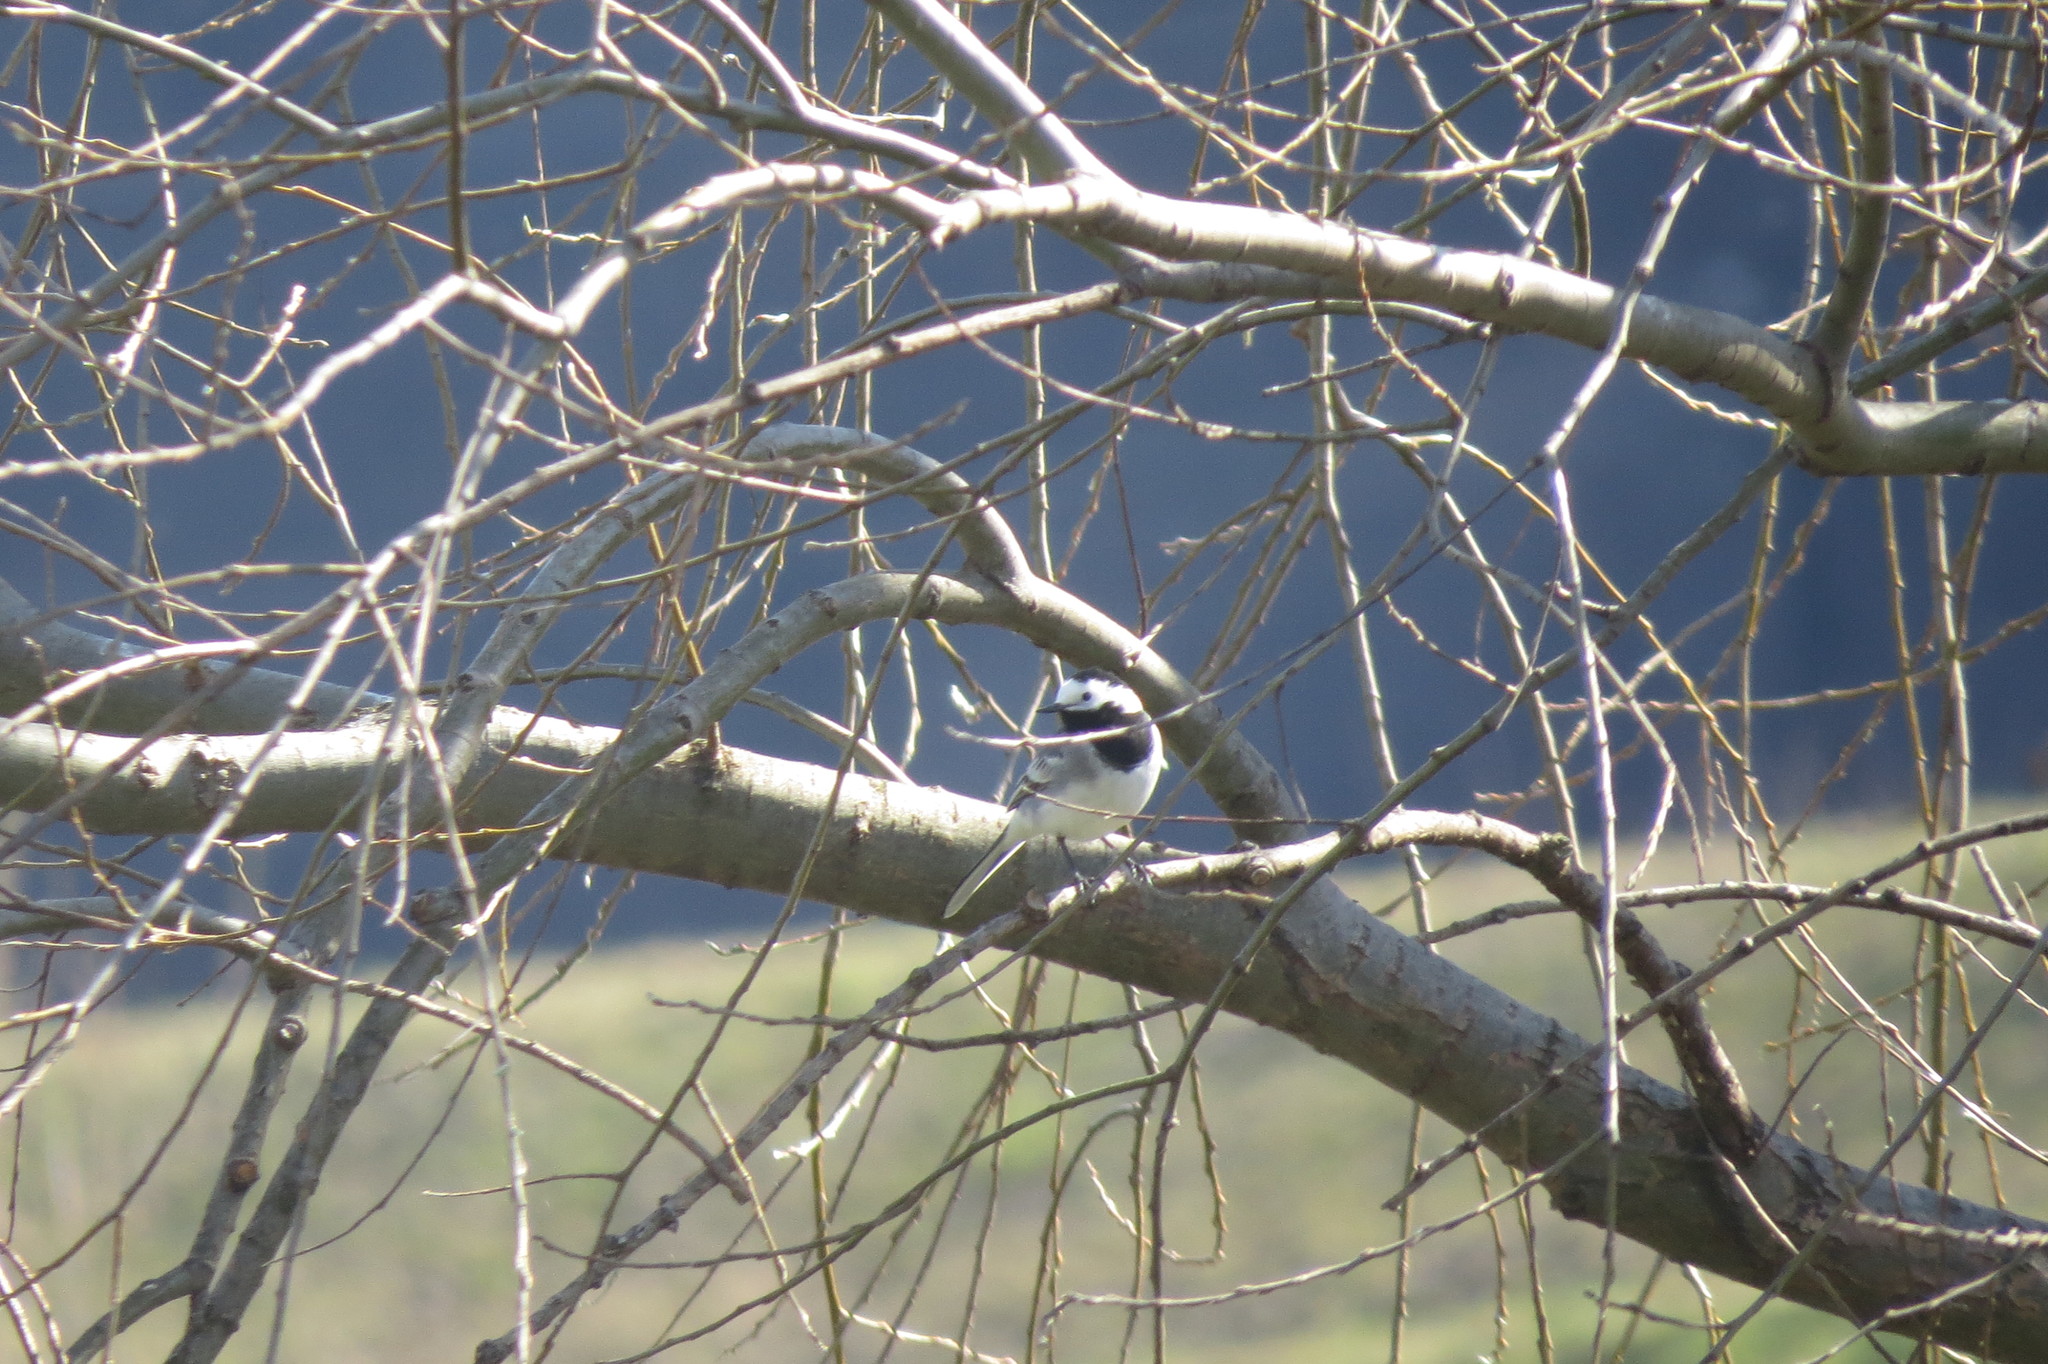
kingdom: Animalia
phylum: Chordata
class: Aves
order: Passeriformes
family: Motacillidae
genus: Motacilla
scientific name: Motacilla alba
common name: White wagtail
